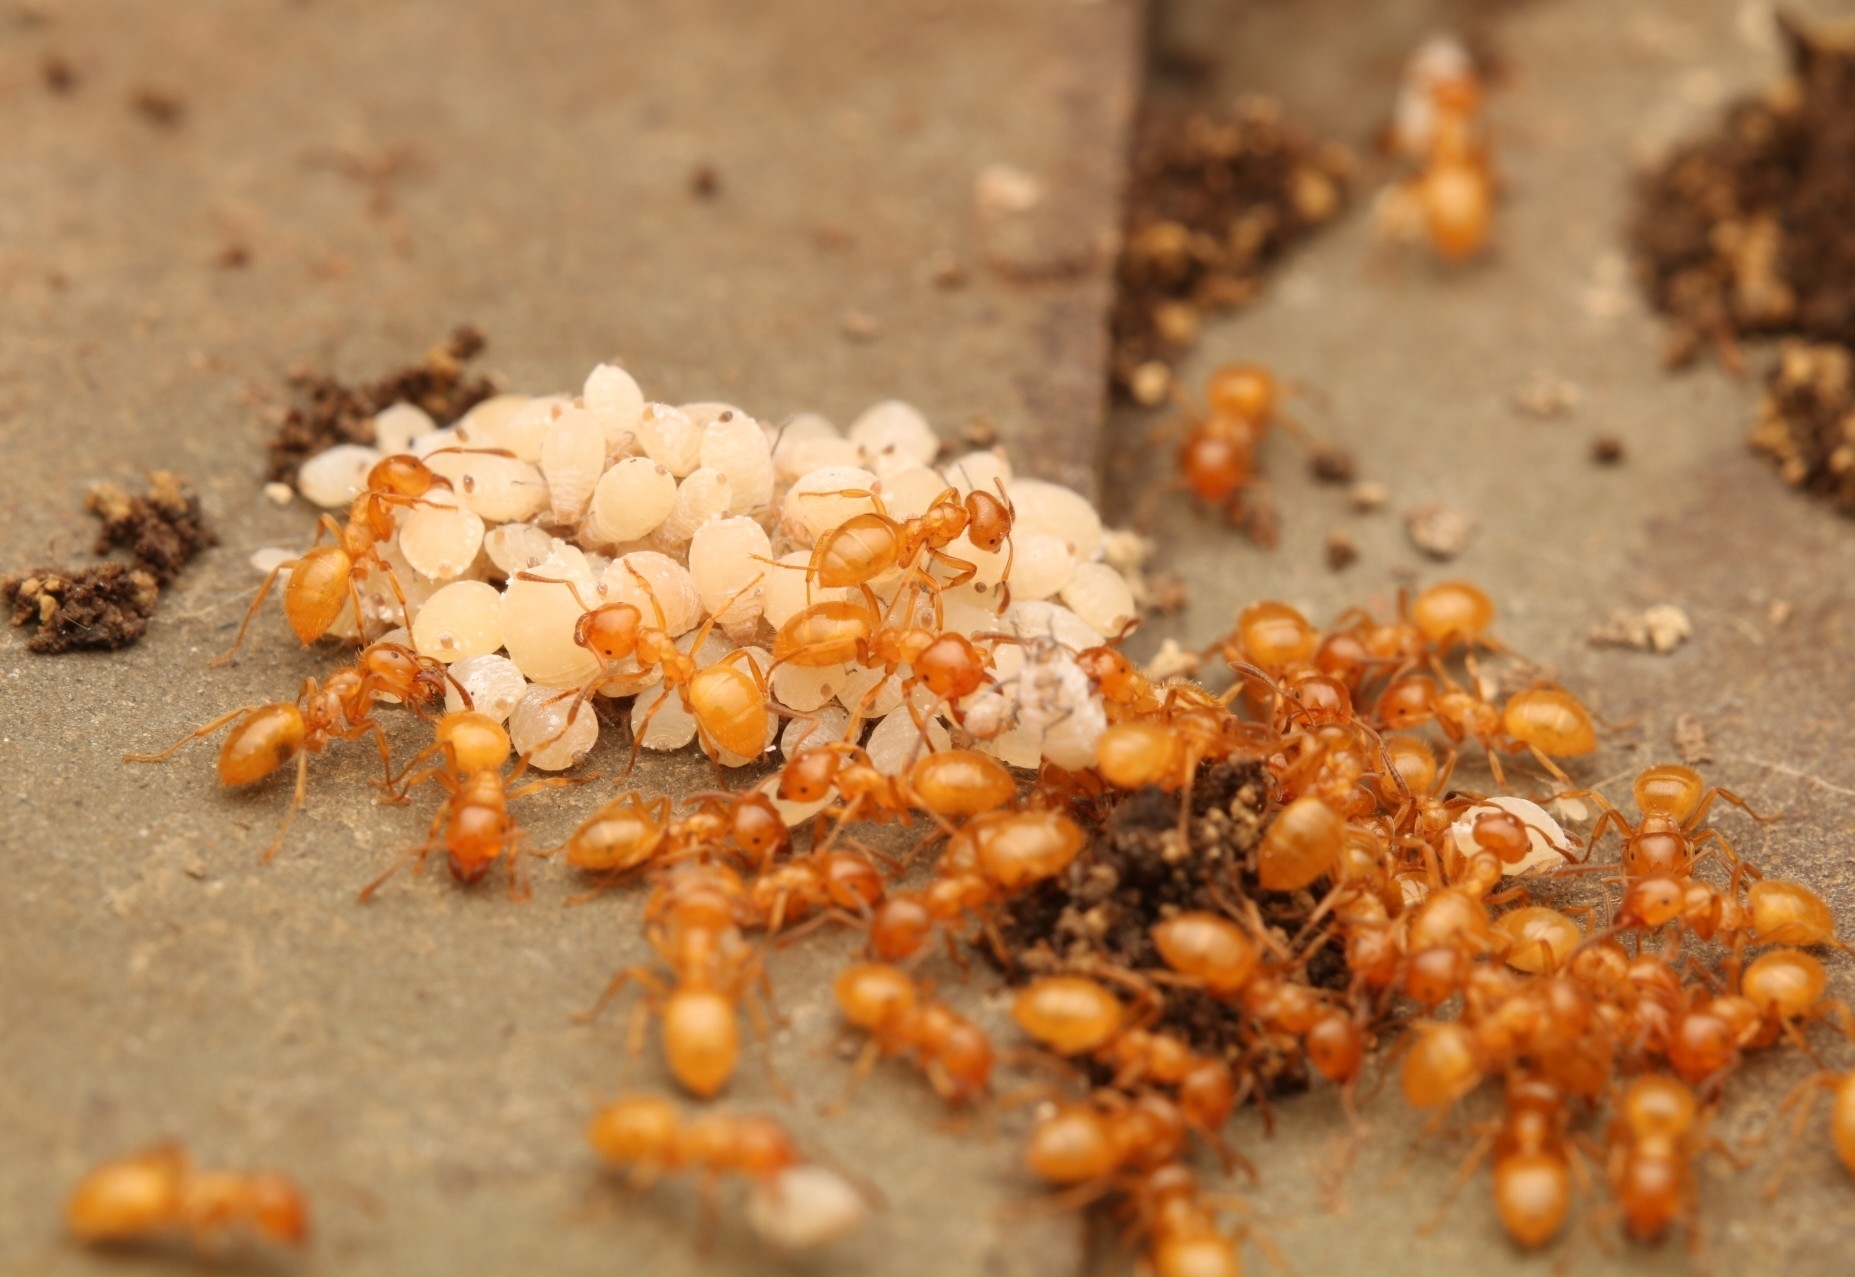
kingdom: Animalia
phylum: Arthropoda
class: Insecta
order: Hymenoptera
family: Formicidae
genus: Lasius
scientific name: Lasius claviger
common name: Common citronella ant
